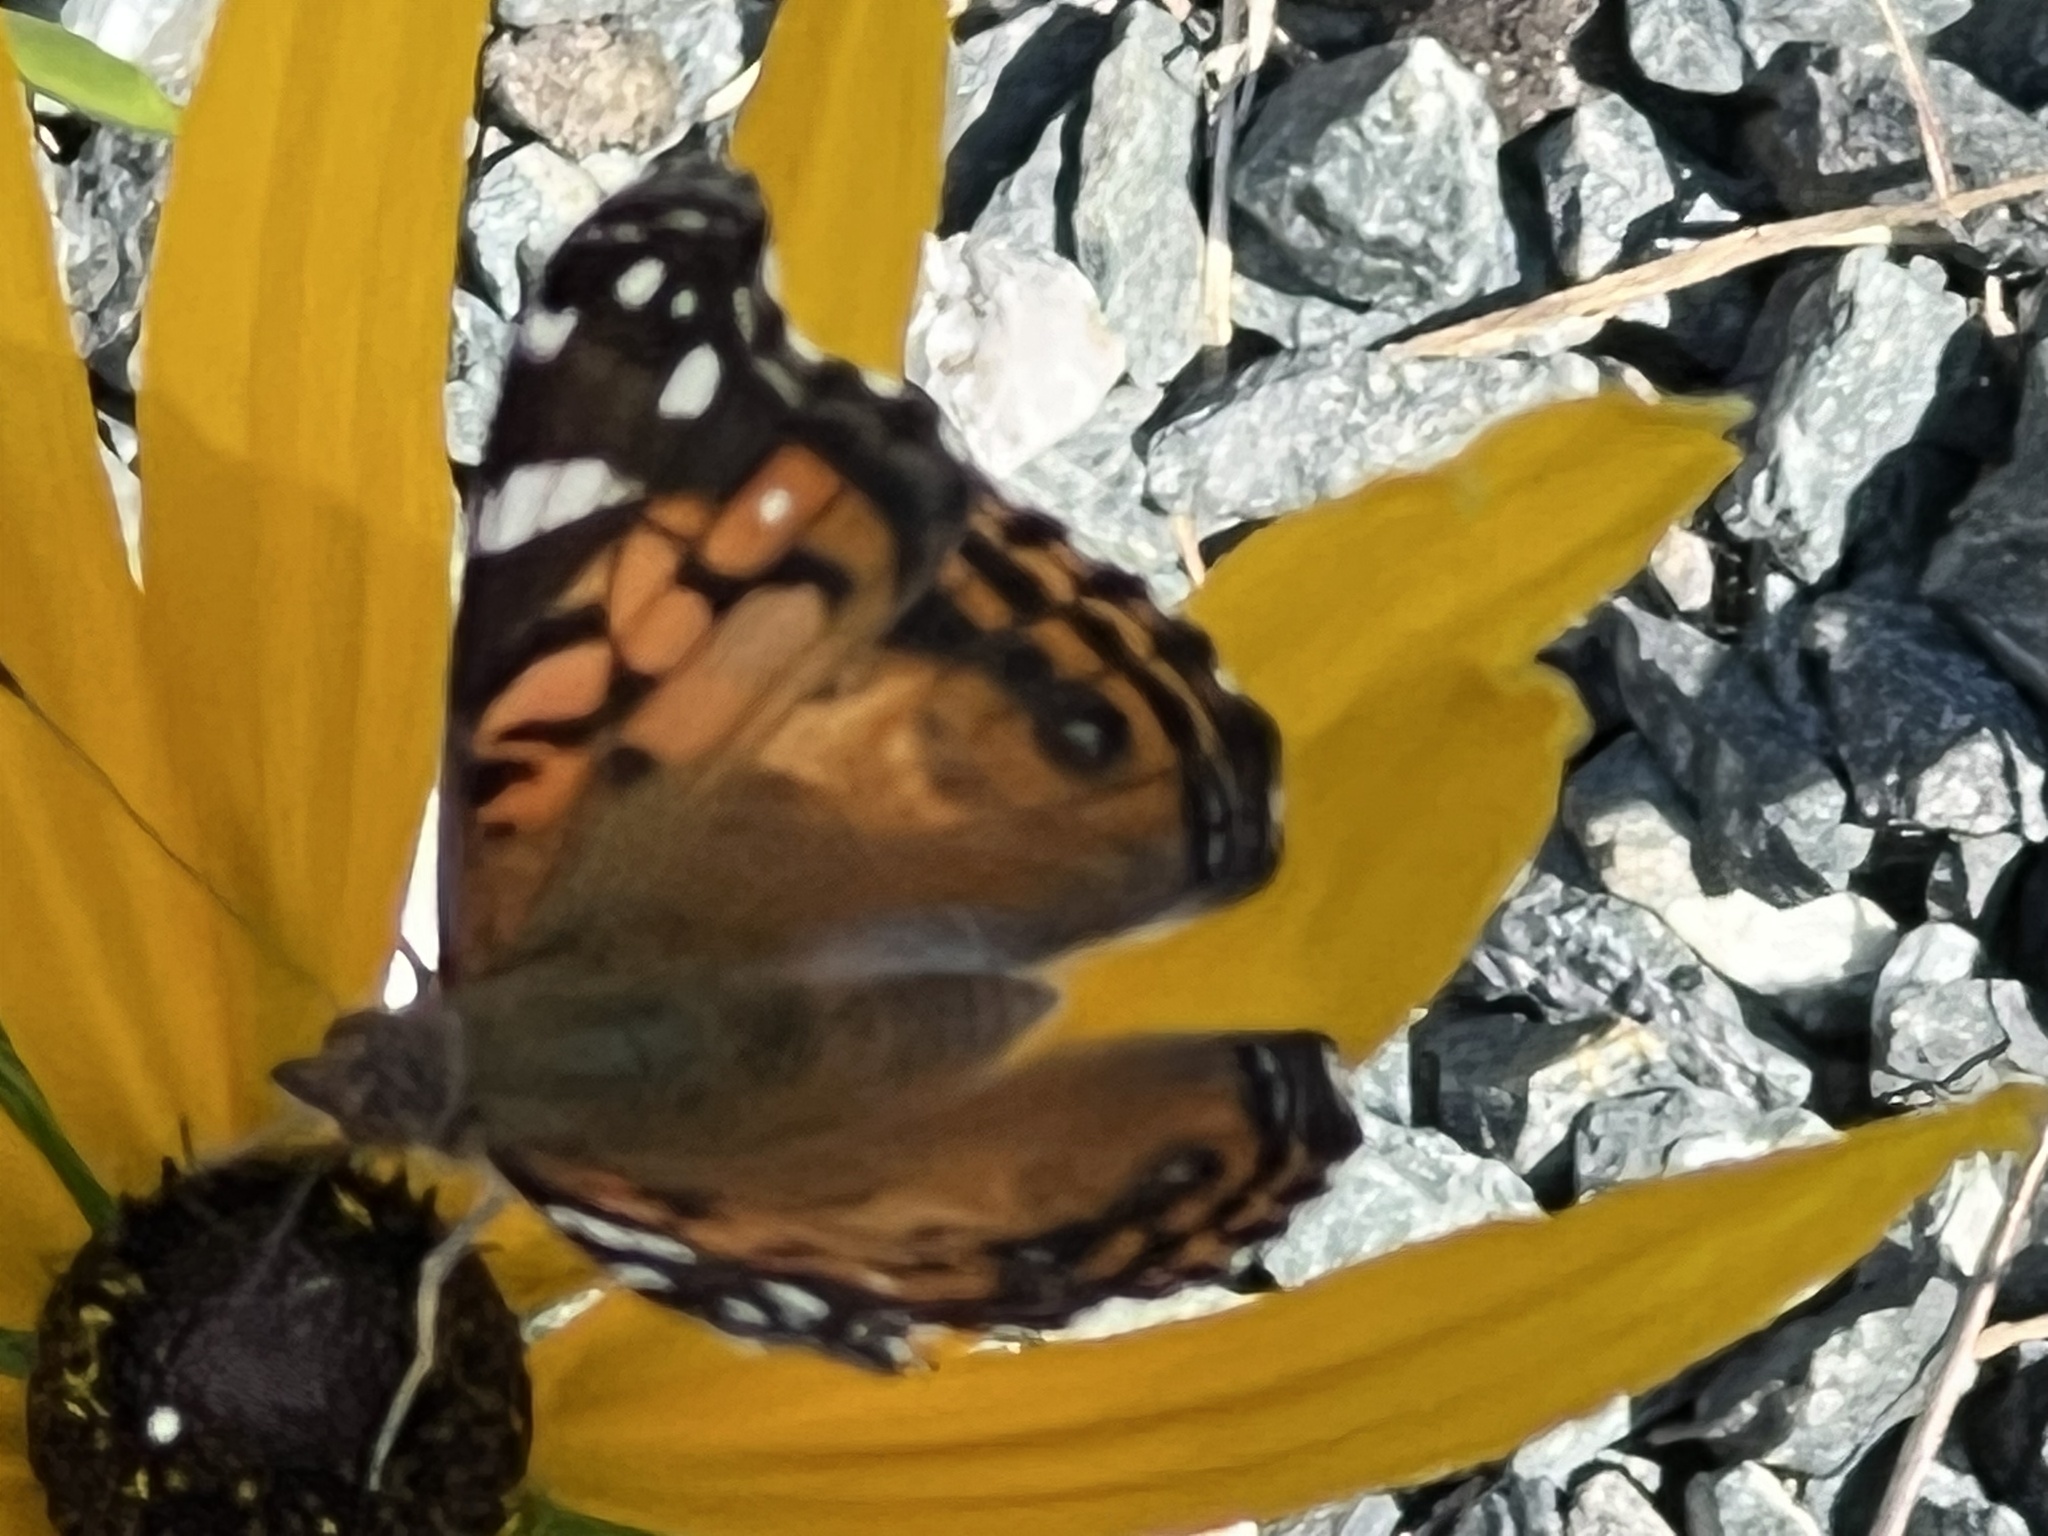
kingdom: Animalia
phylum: Arthropoda
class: Insecta
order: Lepidoptera
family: Nymphalidae
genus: Vanessa
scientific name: Vanessa virginiensis
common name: American lady
